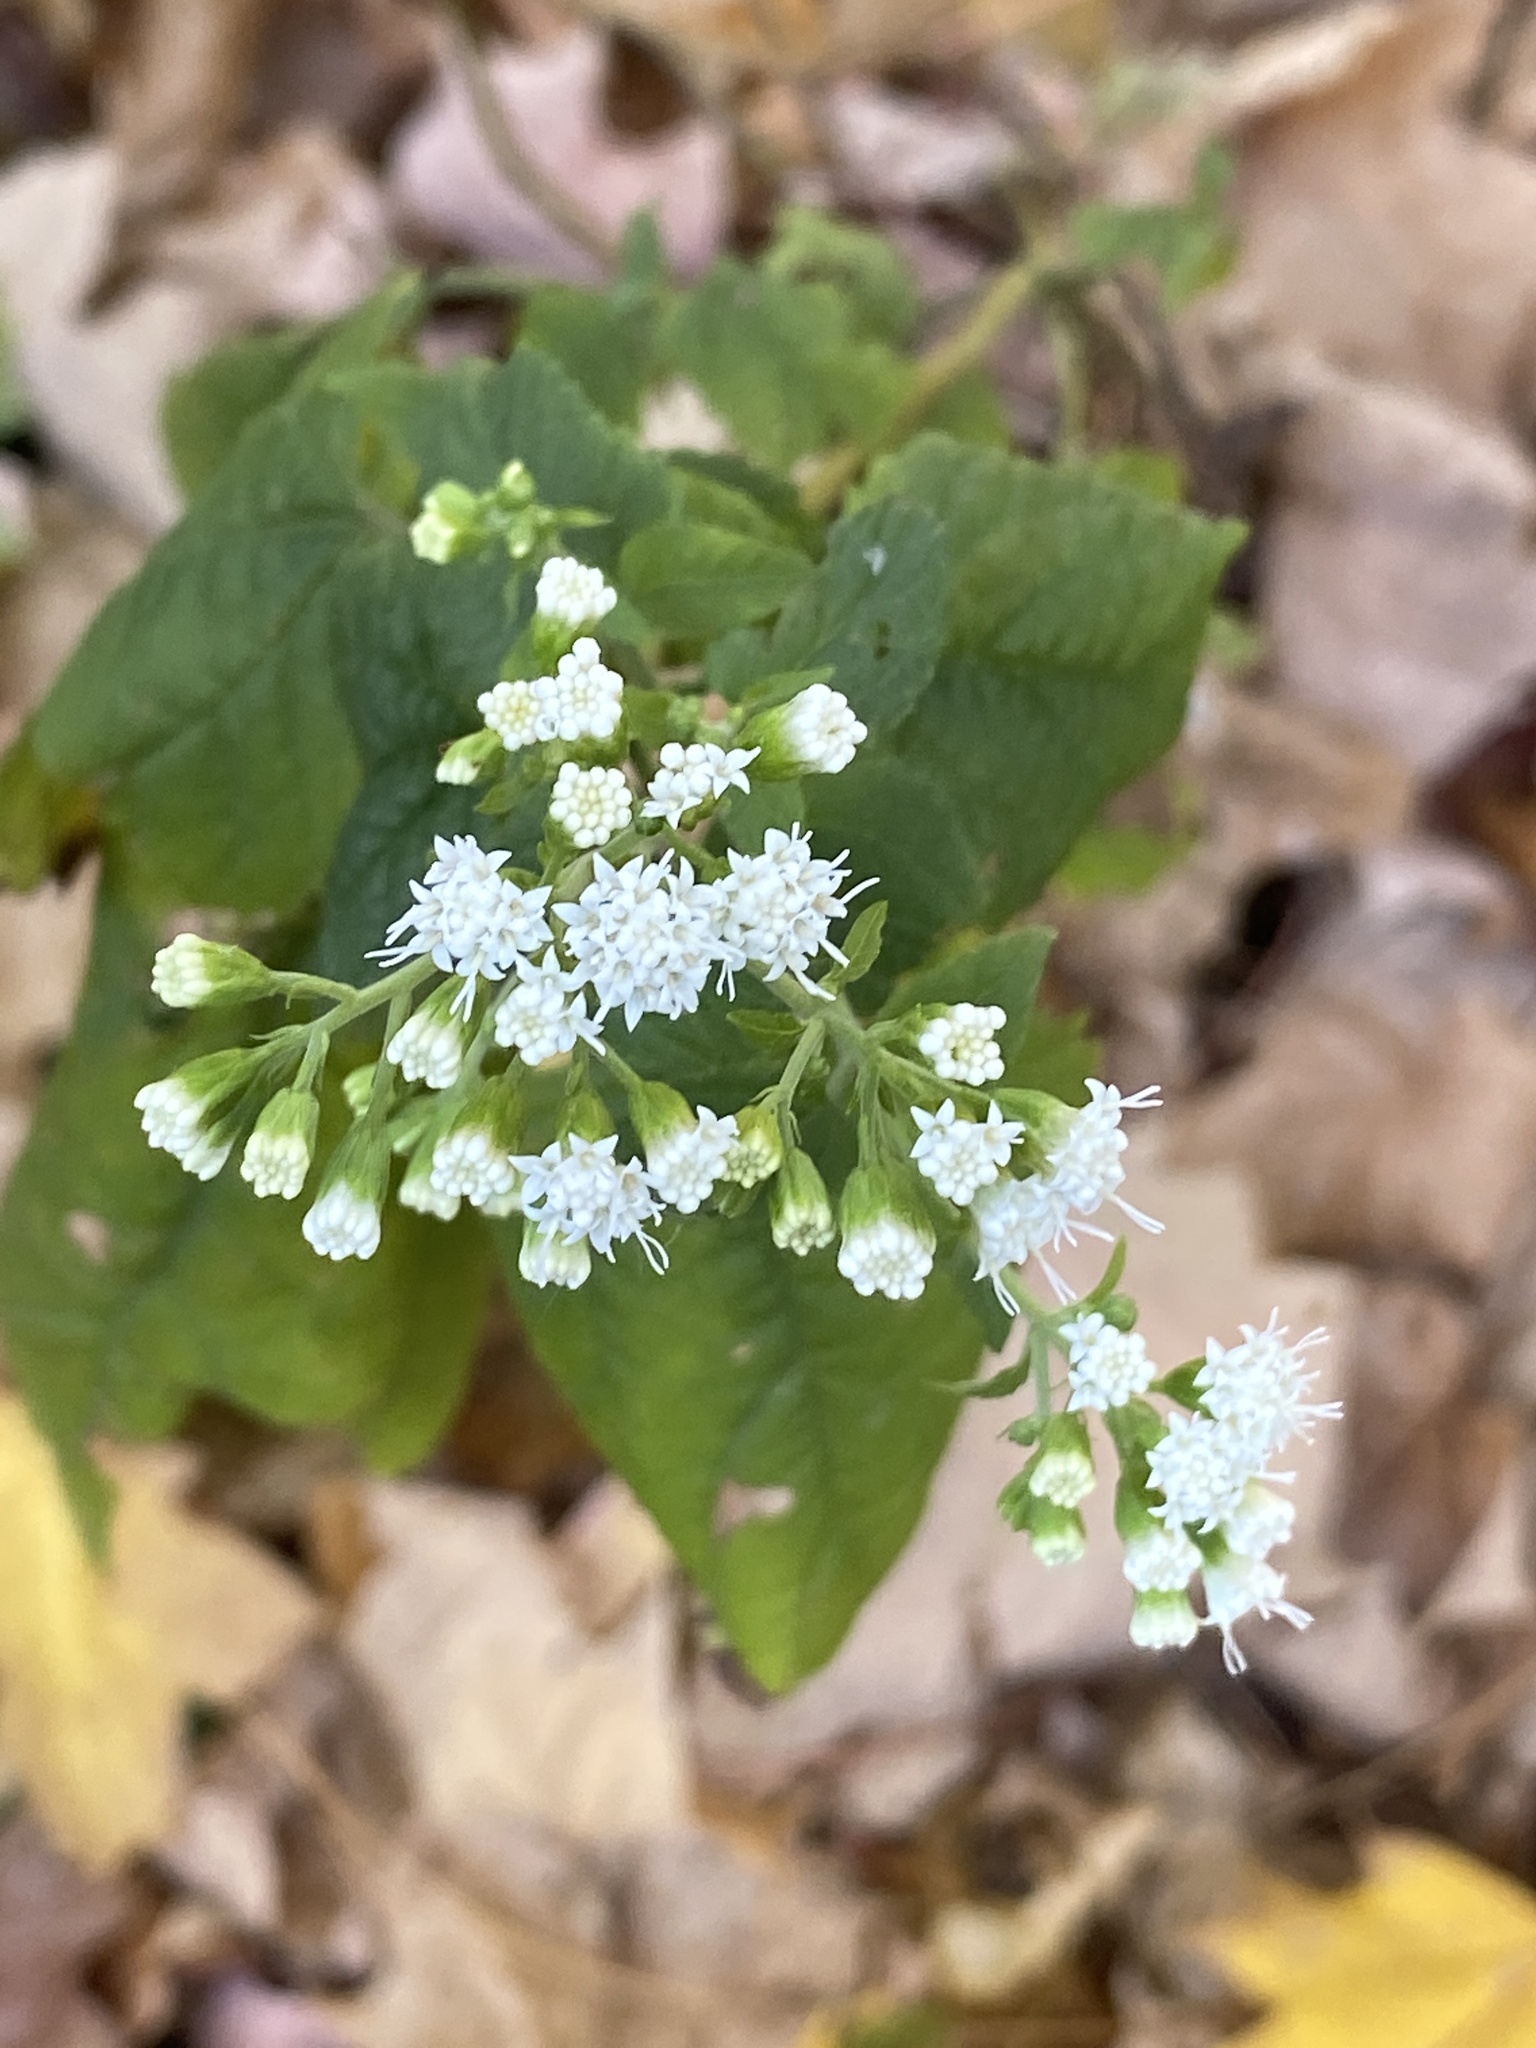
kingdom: Plantae
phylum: Tracheophyta
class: Magnoliopsida
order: Asterales
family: Asteraceae
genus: Ageratina
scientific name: Ageratina altissima
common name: White snakeroot
